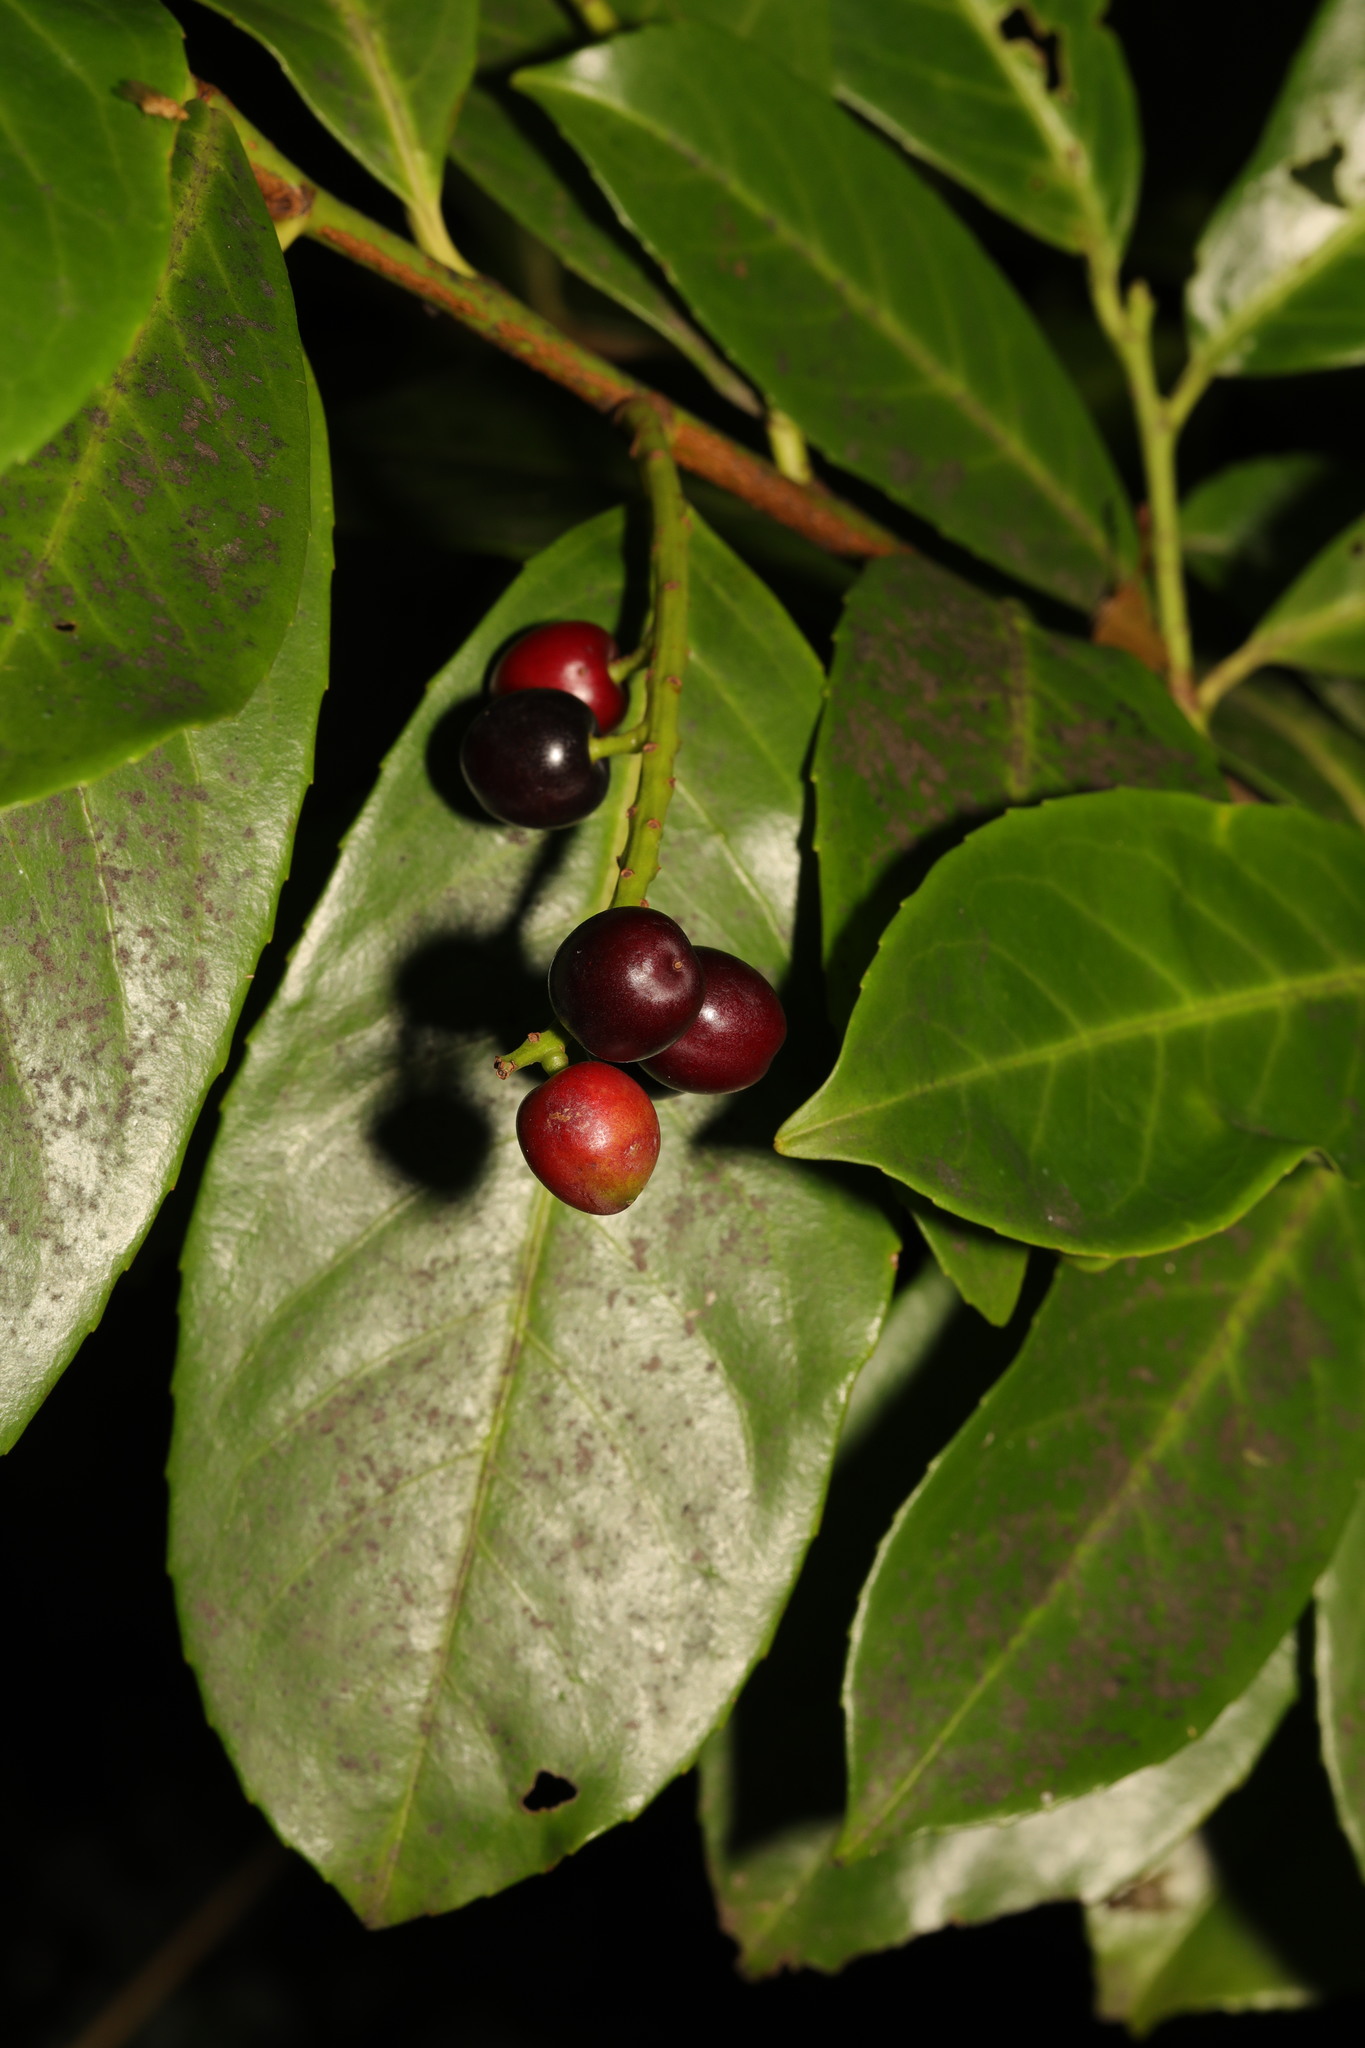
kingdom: Plantae
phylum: Tracheophyta
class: Magnoliopsida
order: Rosales
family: Rosaceae
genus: Prunus
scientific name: Prunus laurocerasus
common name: Cherry laurel
